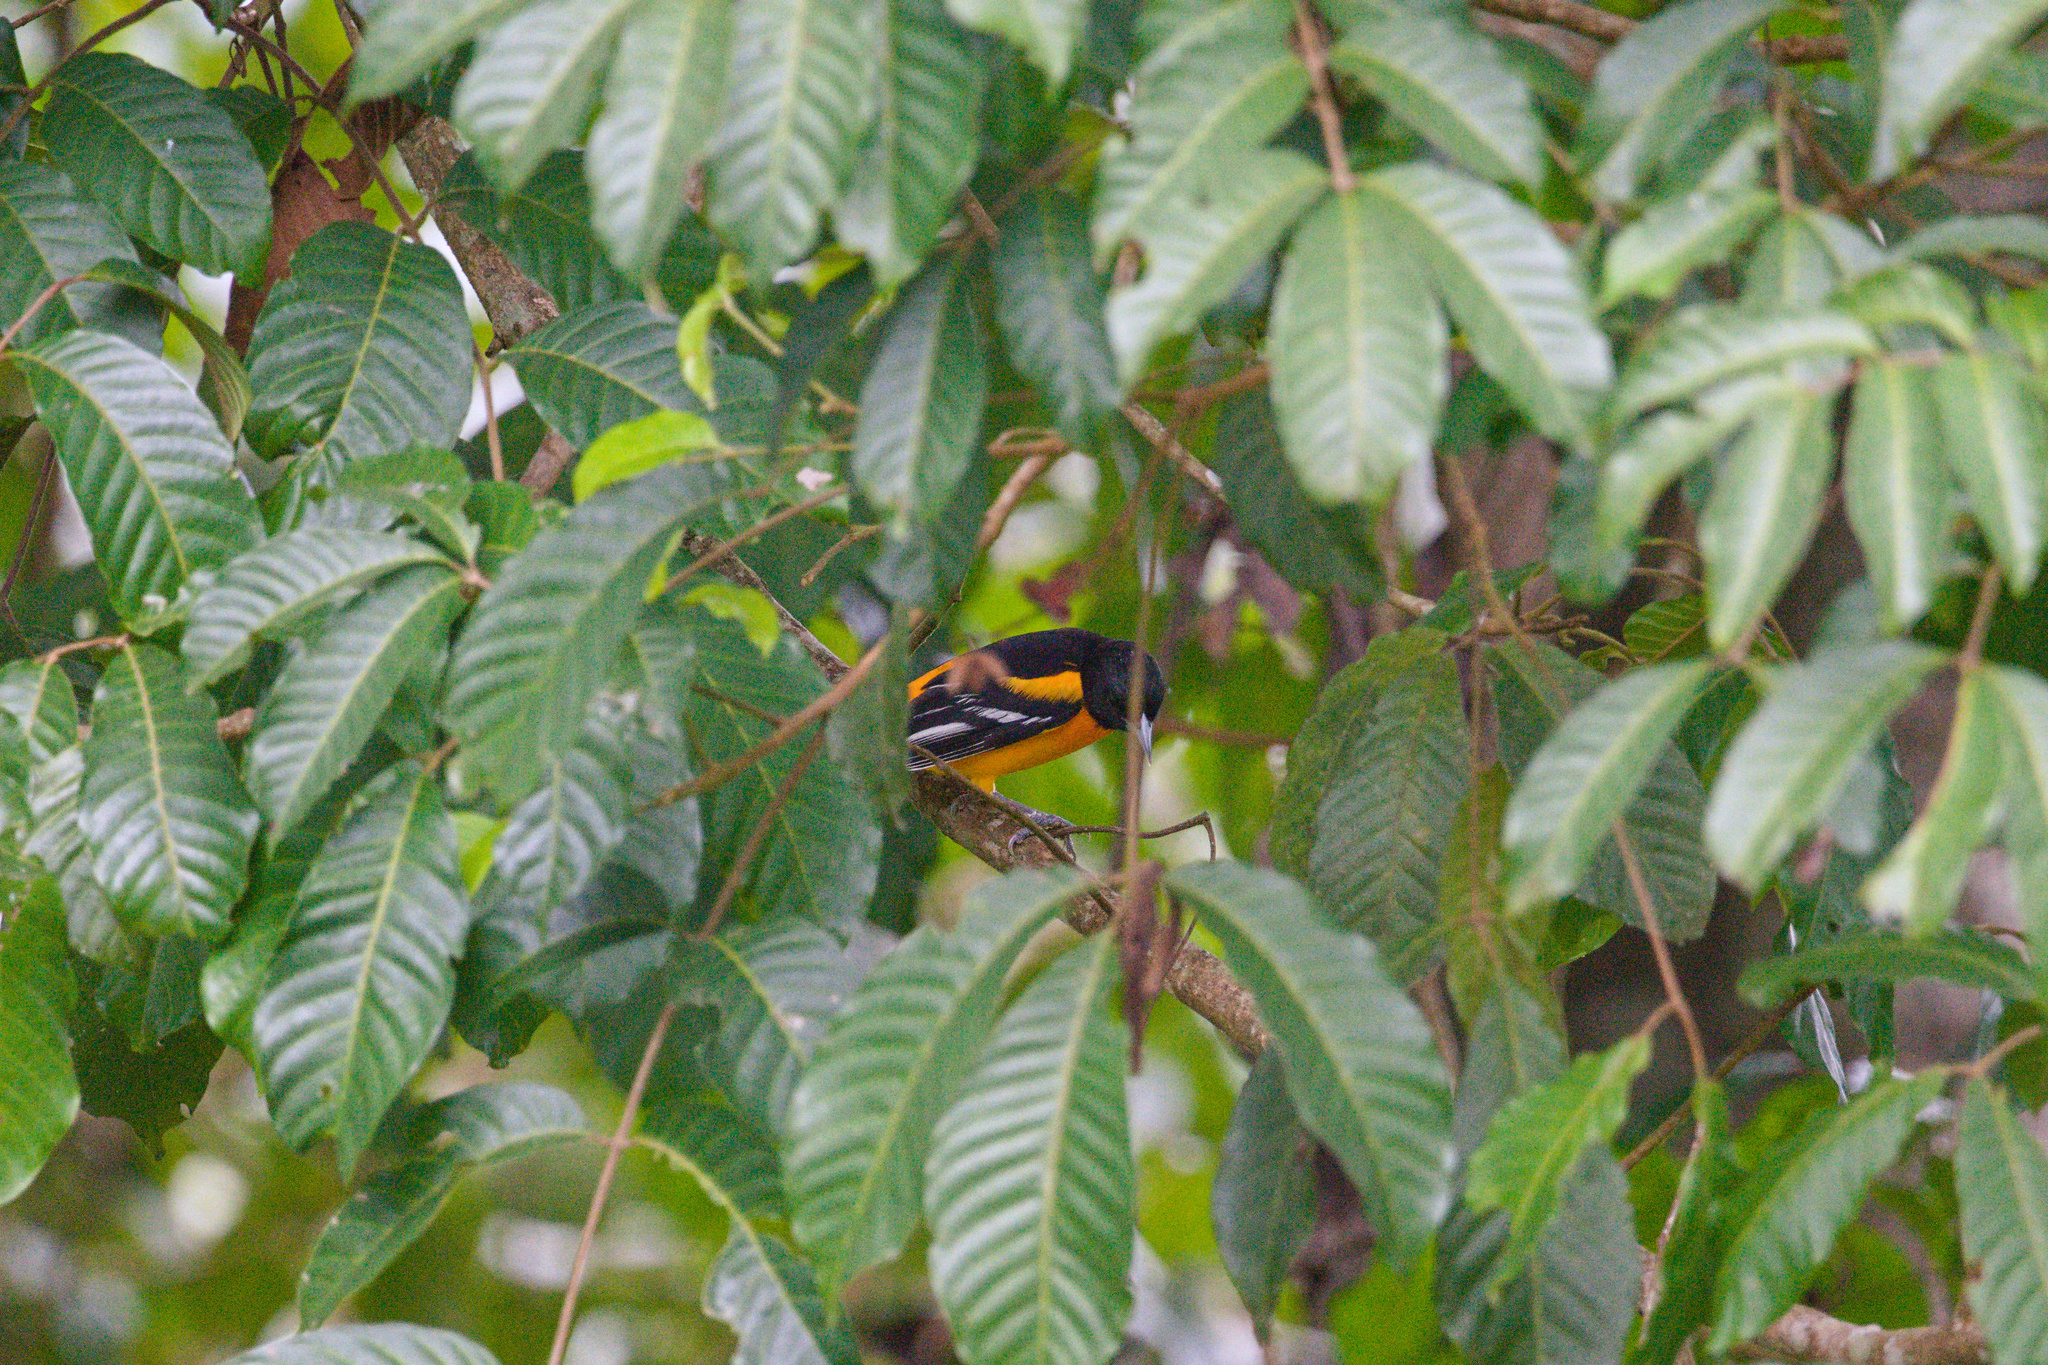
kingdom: Animalia
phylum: Chordata
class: Aves
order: Passeriformes
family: Icteridae
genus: Icterus
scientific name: Icterus galbula
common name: Baltimore oriole
